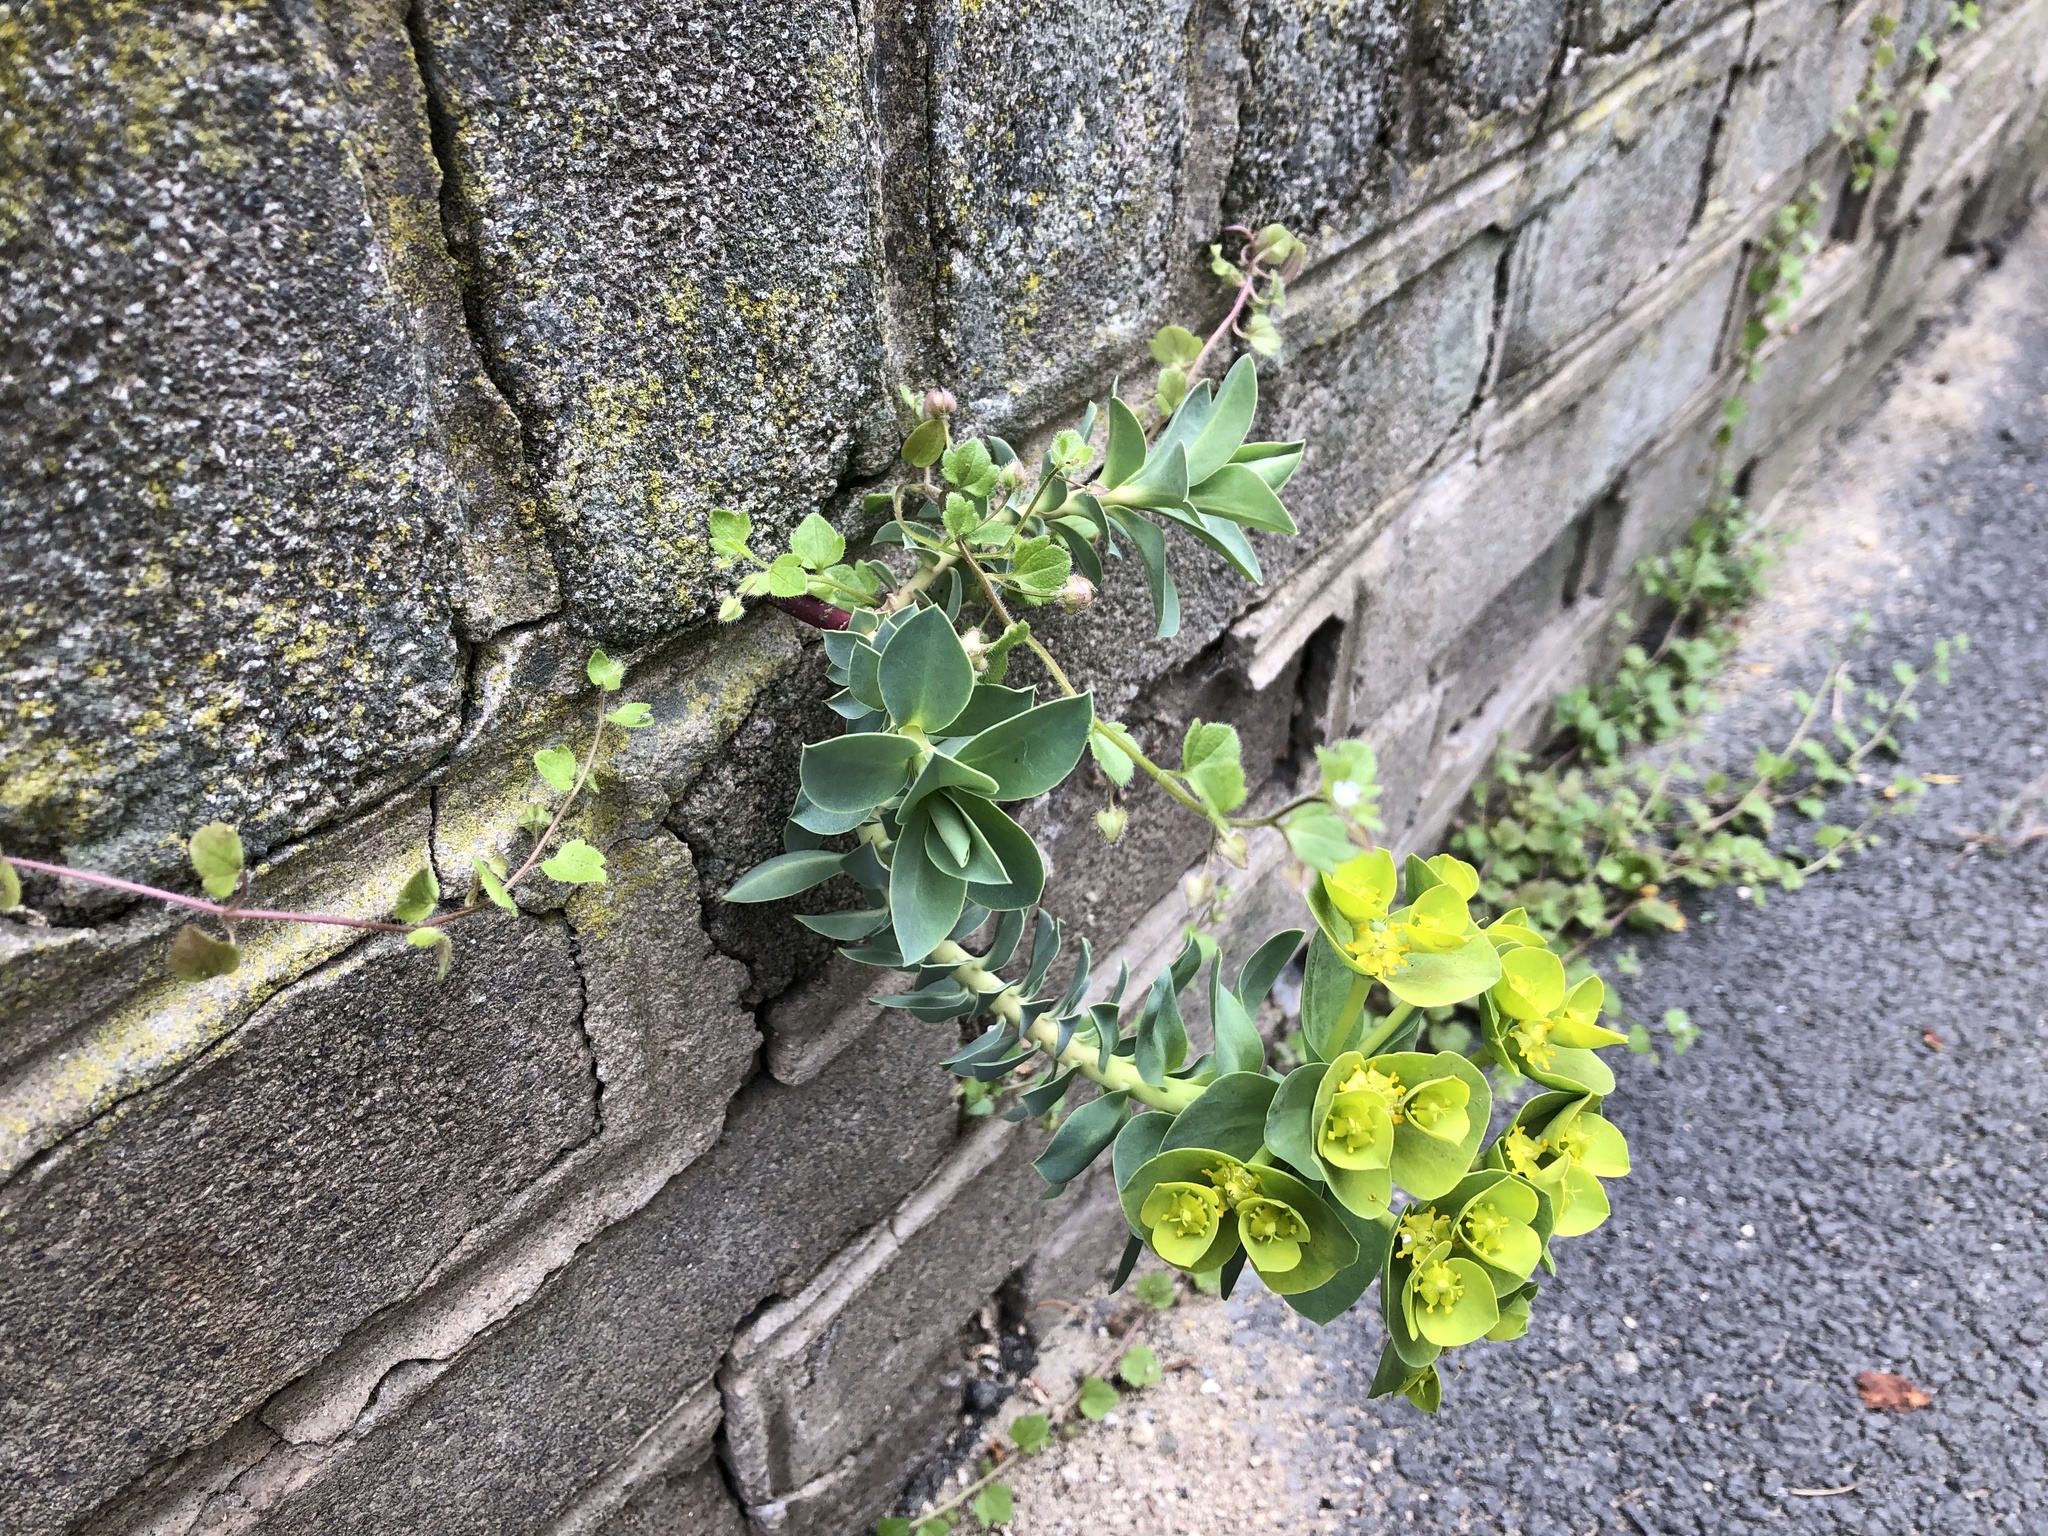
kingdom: Plantae
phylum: Tracheophyta
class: Magnoliopsida
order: Malpighiales
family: Euphorbiaceae
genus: Euphorbia
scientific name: Euphorbia myrsinites
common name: Myrtle spurge
